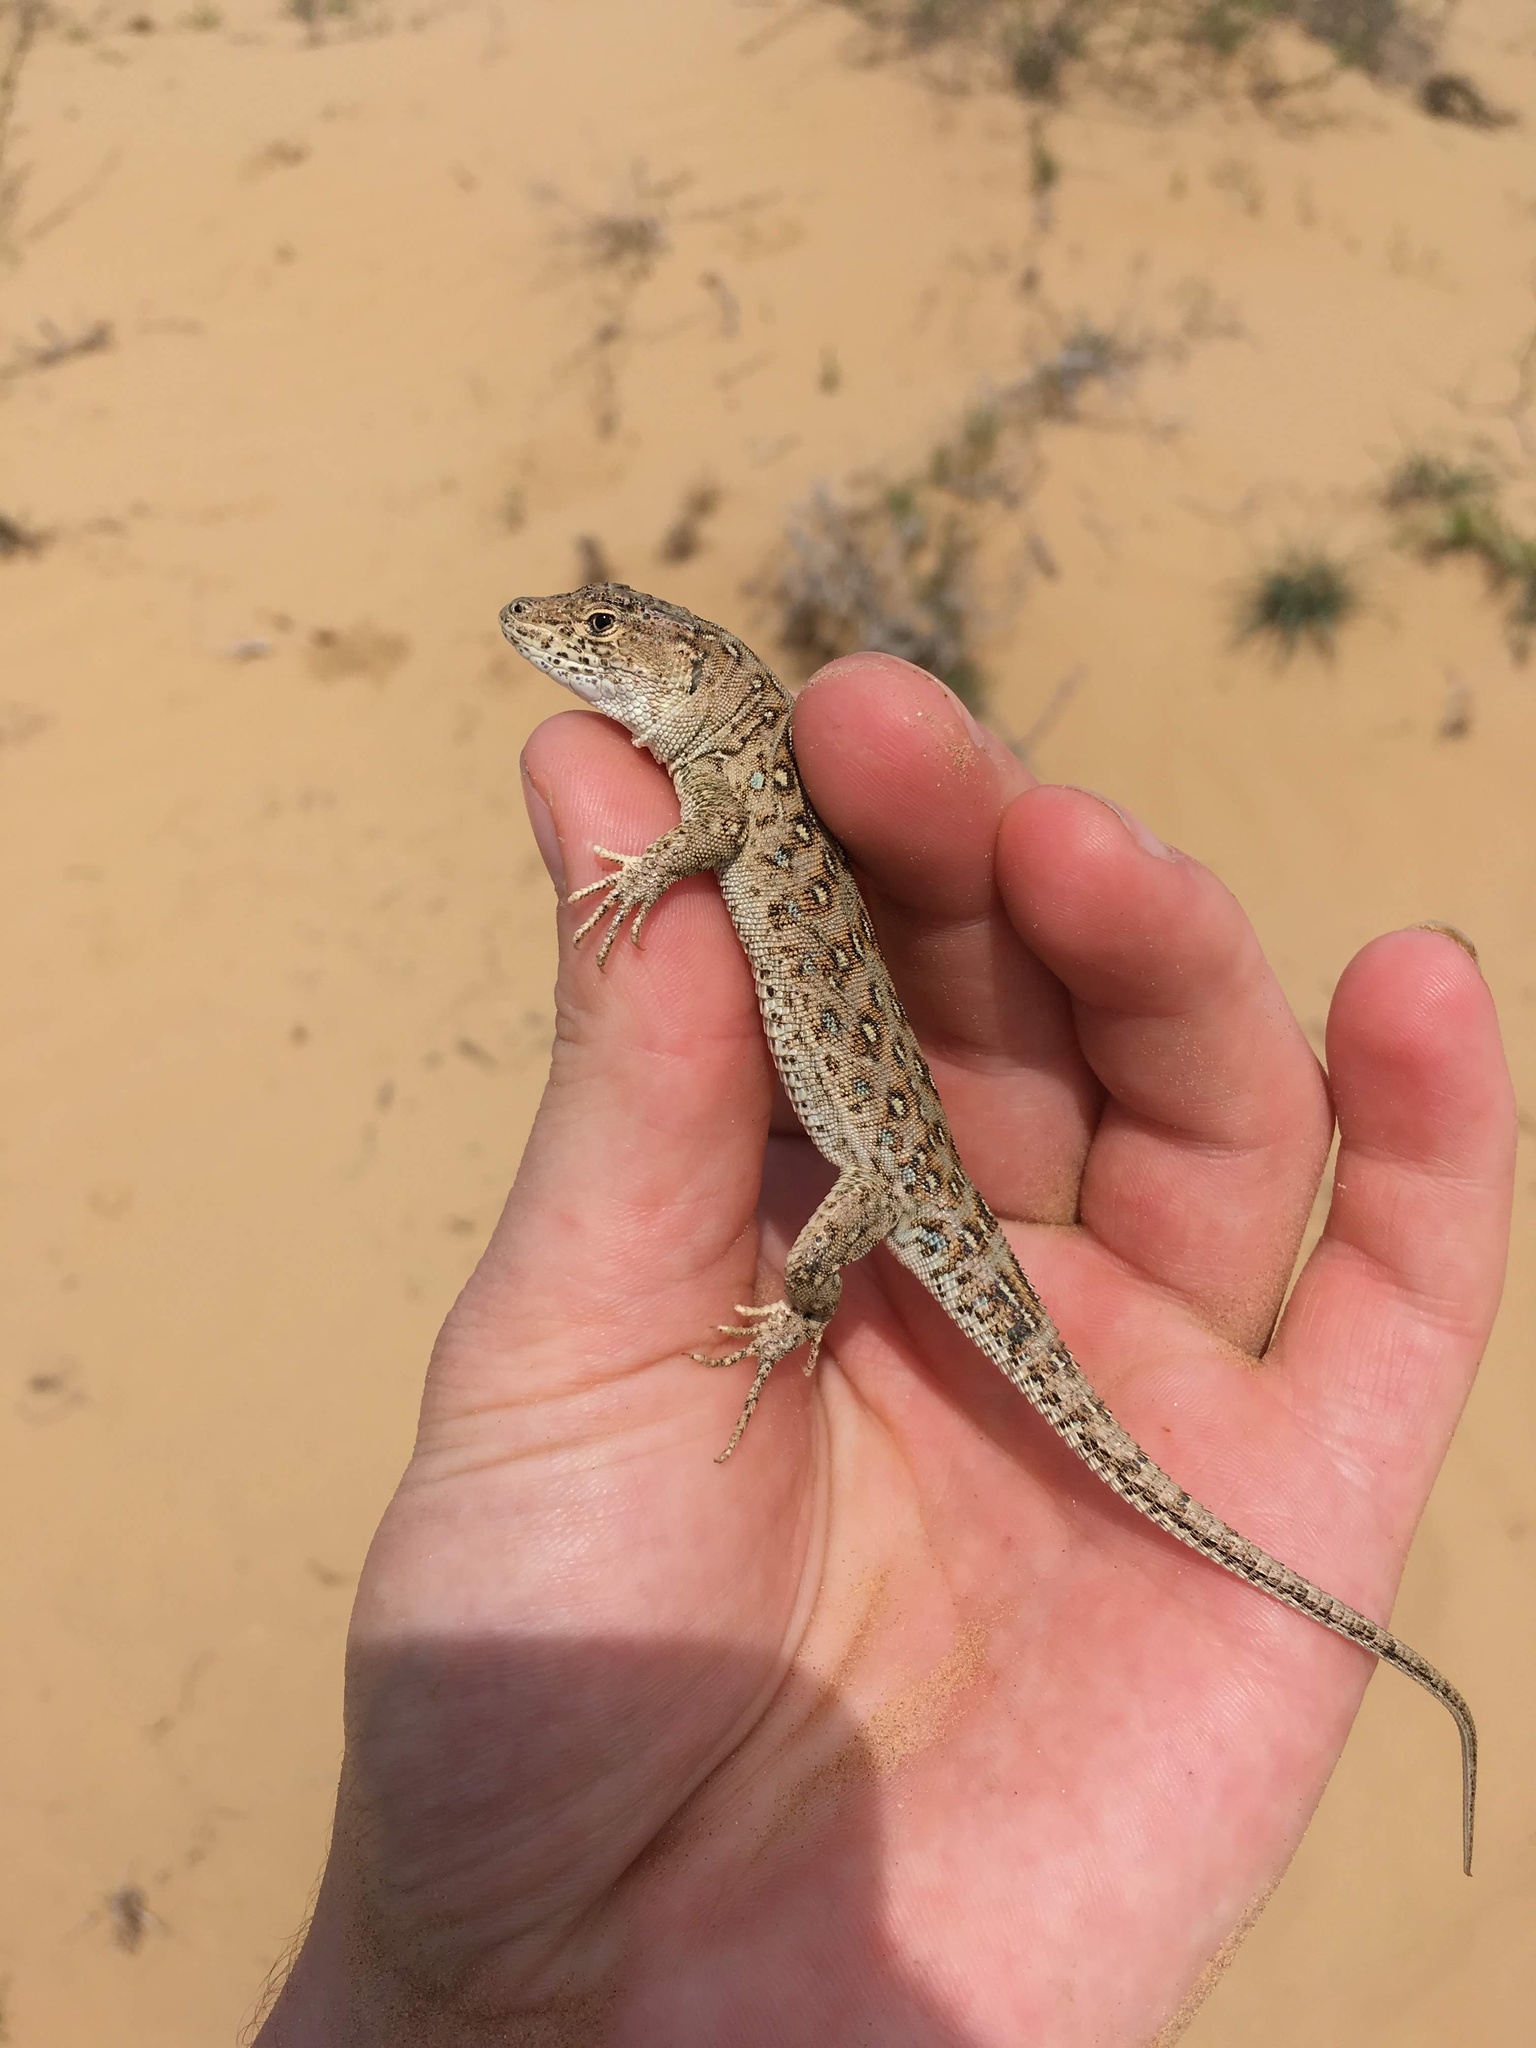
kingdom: Animalia
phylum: Chordata
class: Squamata
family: Lacertidae
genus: Eremias
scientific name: Eremias arguta
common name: Racerunner
